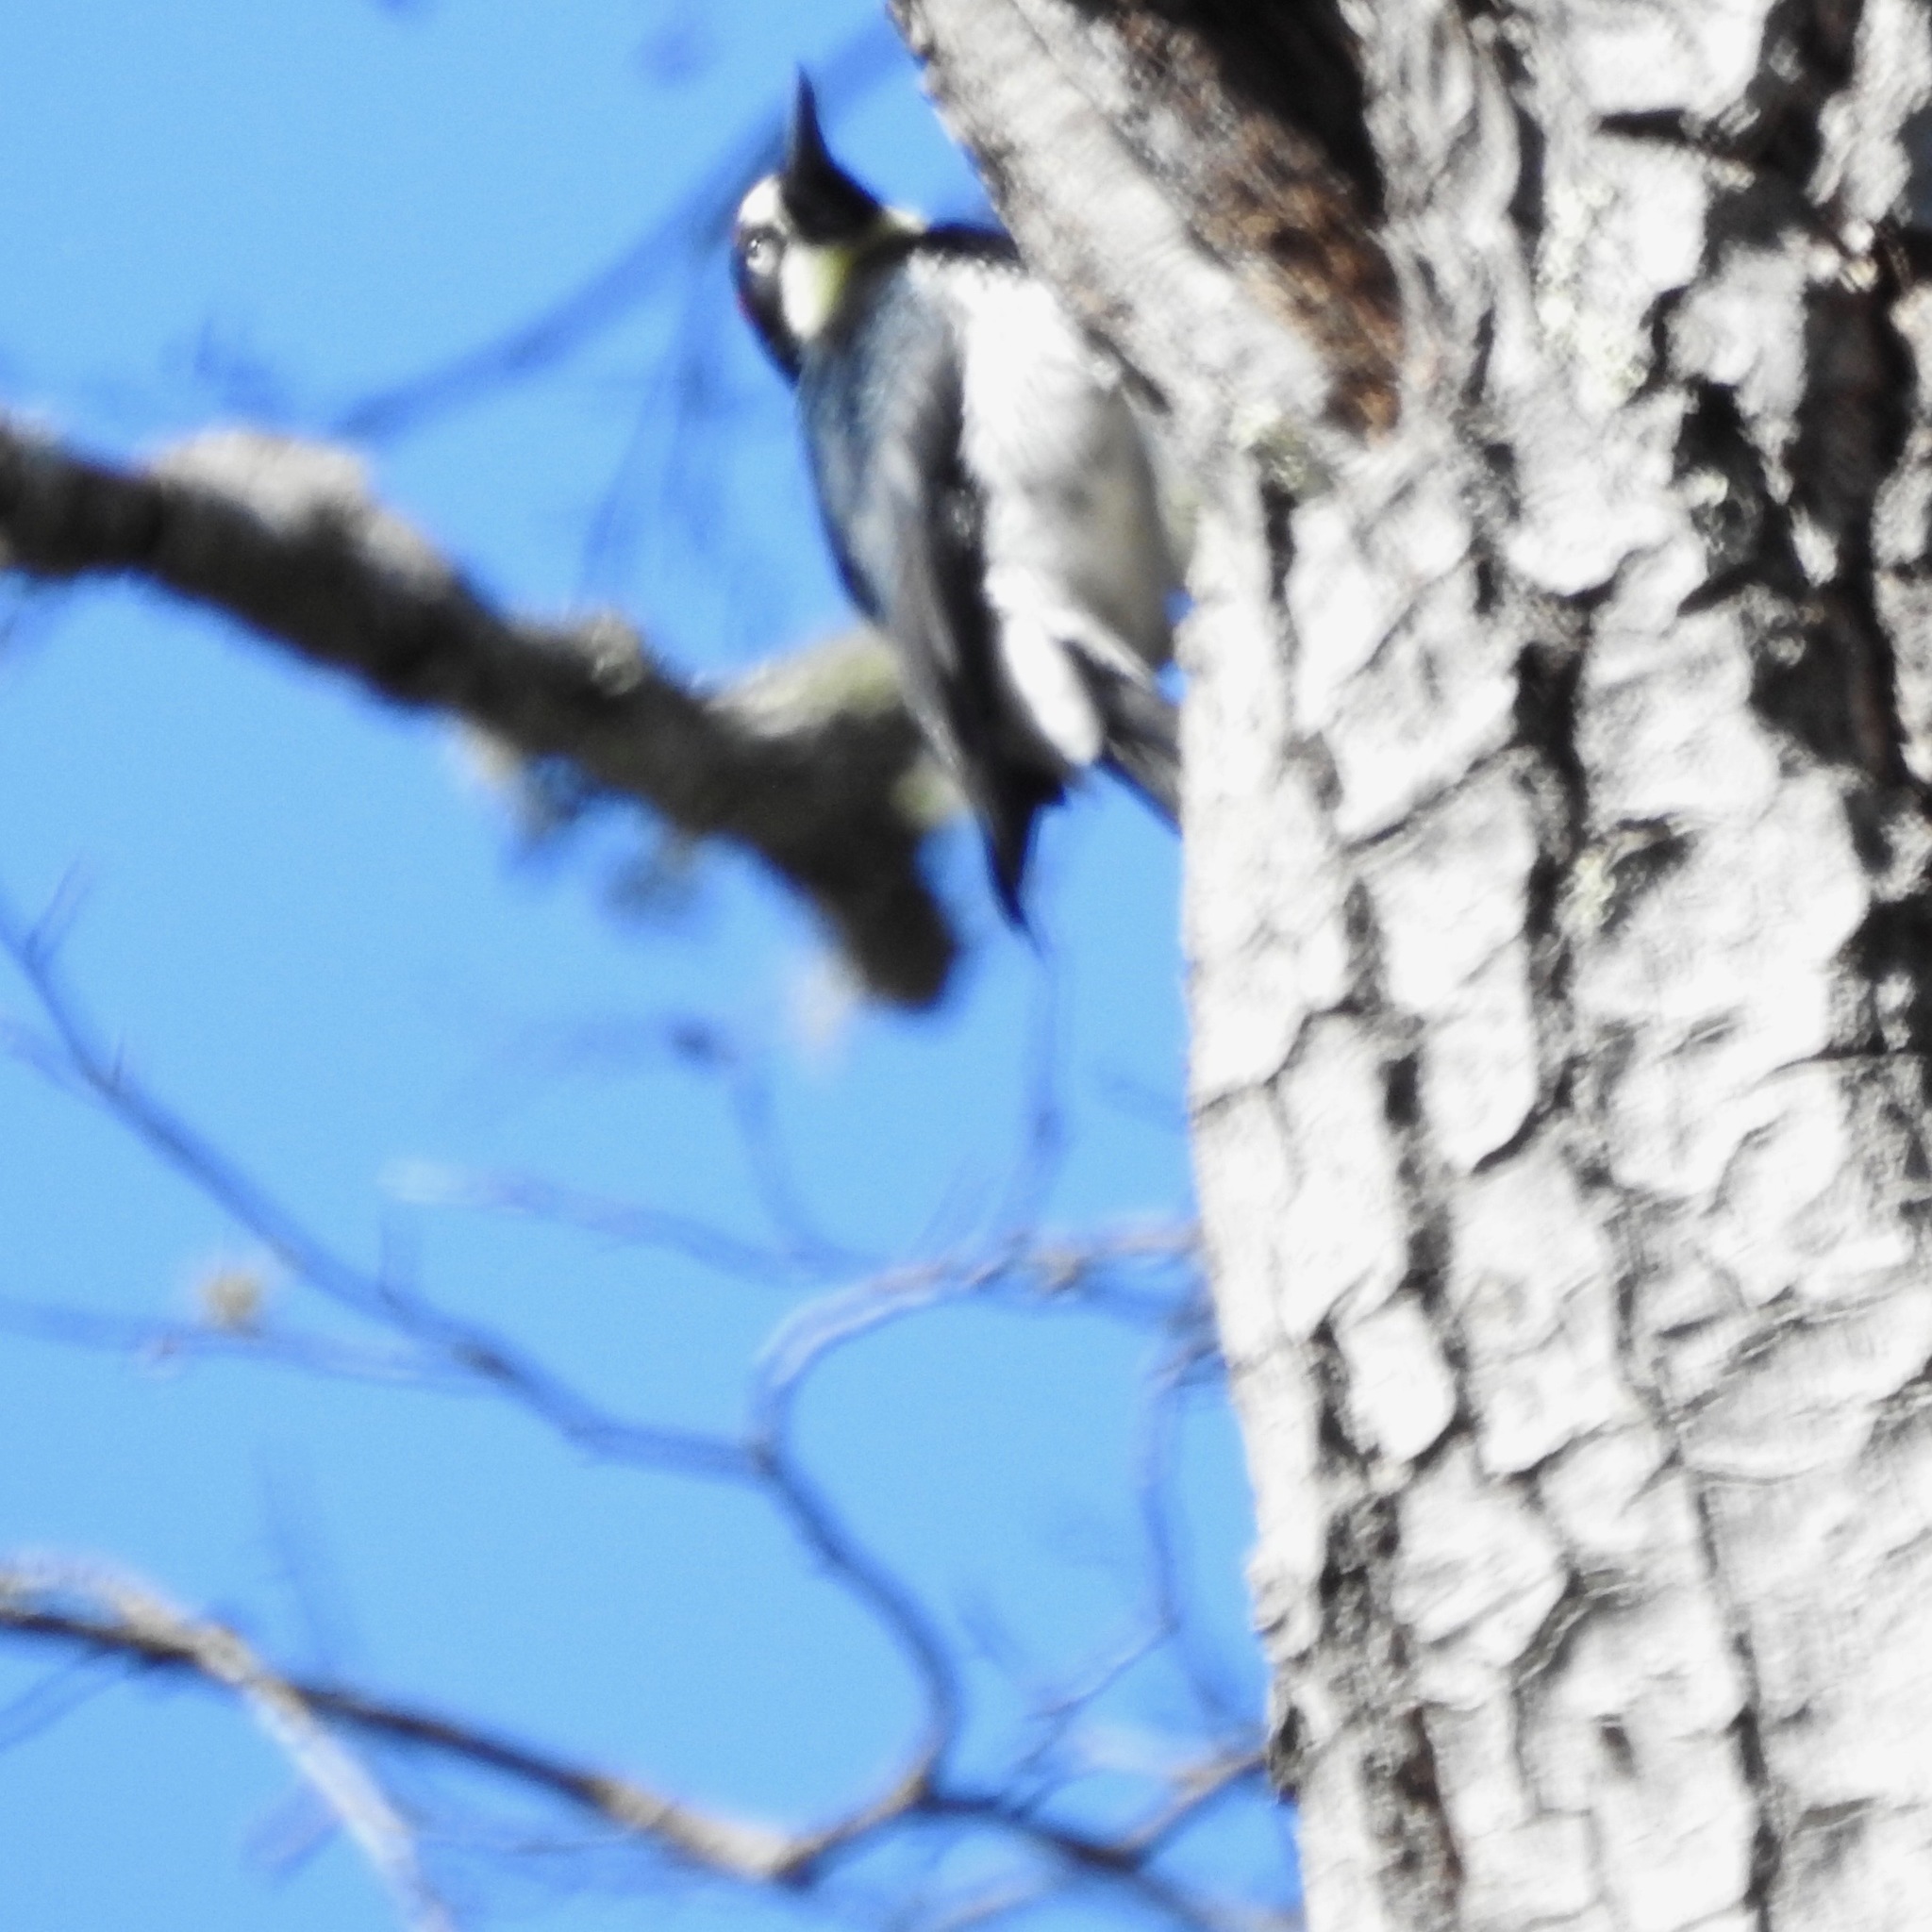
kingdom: Animalia
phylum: Chordata
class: Aves
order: Piciformes
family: Picidae
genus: Melanerpes
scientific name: Melanerpes formicivorus
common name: Acorn woodpecker
